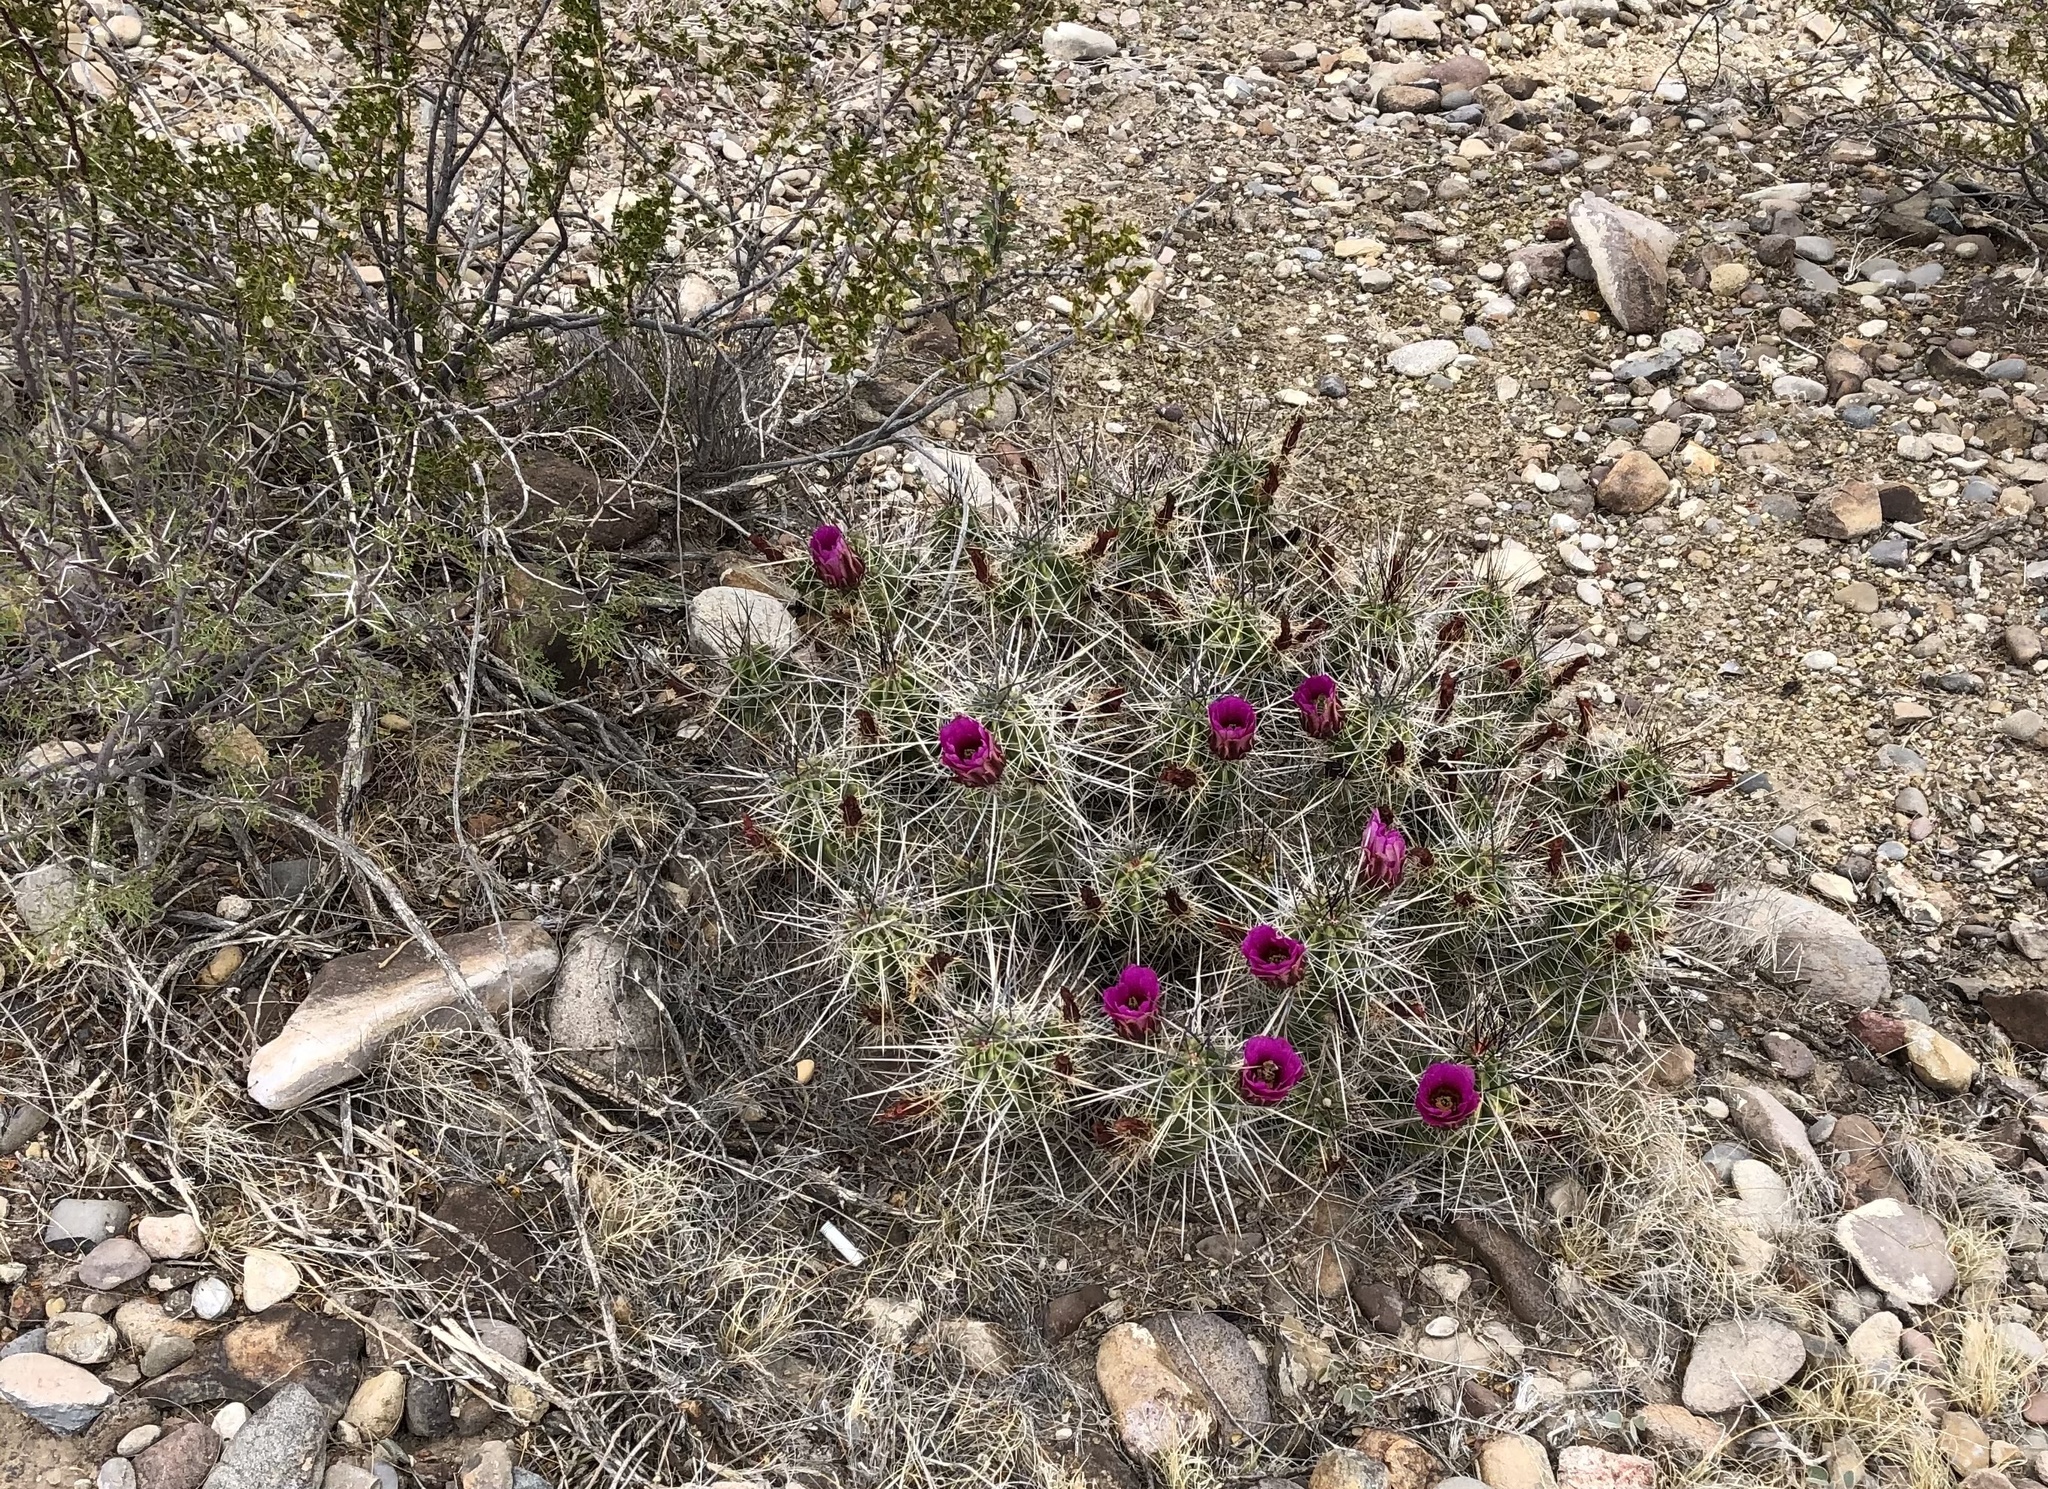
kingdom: Plantae
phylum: Tracheophyta
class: Magnoliopsida
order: Caryophyllales
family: Cactaceae
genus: Echinocereus
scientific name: Echinocereus enneacanthus
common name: Pitaya
